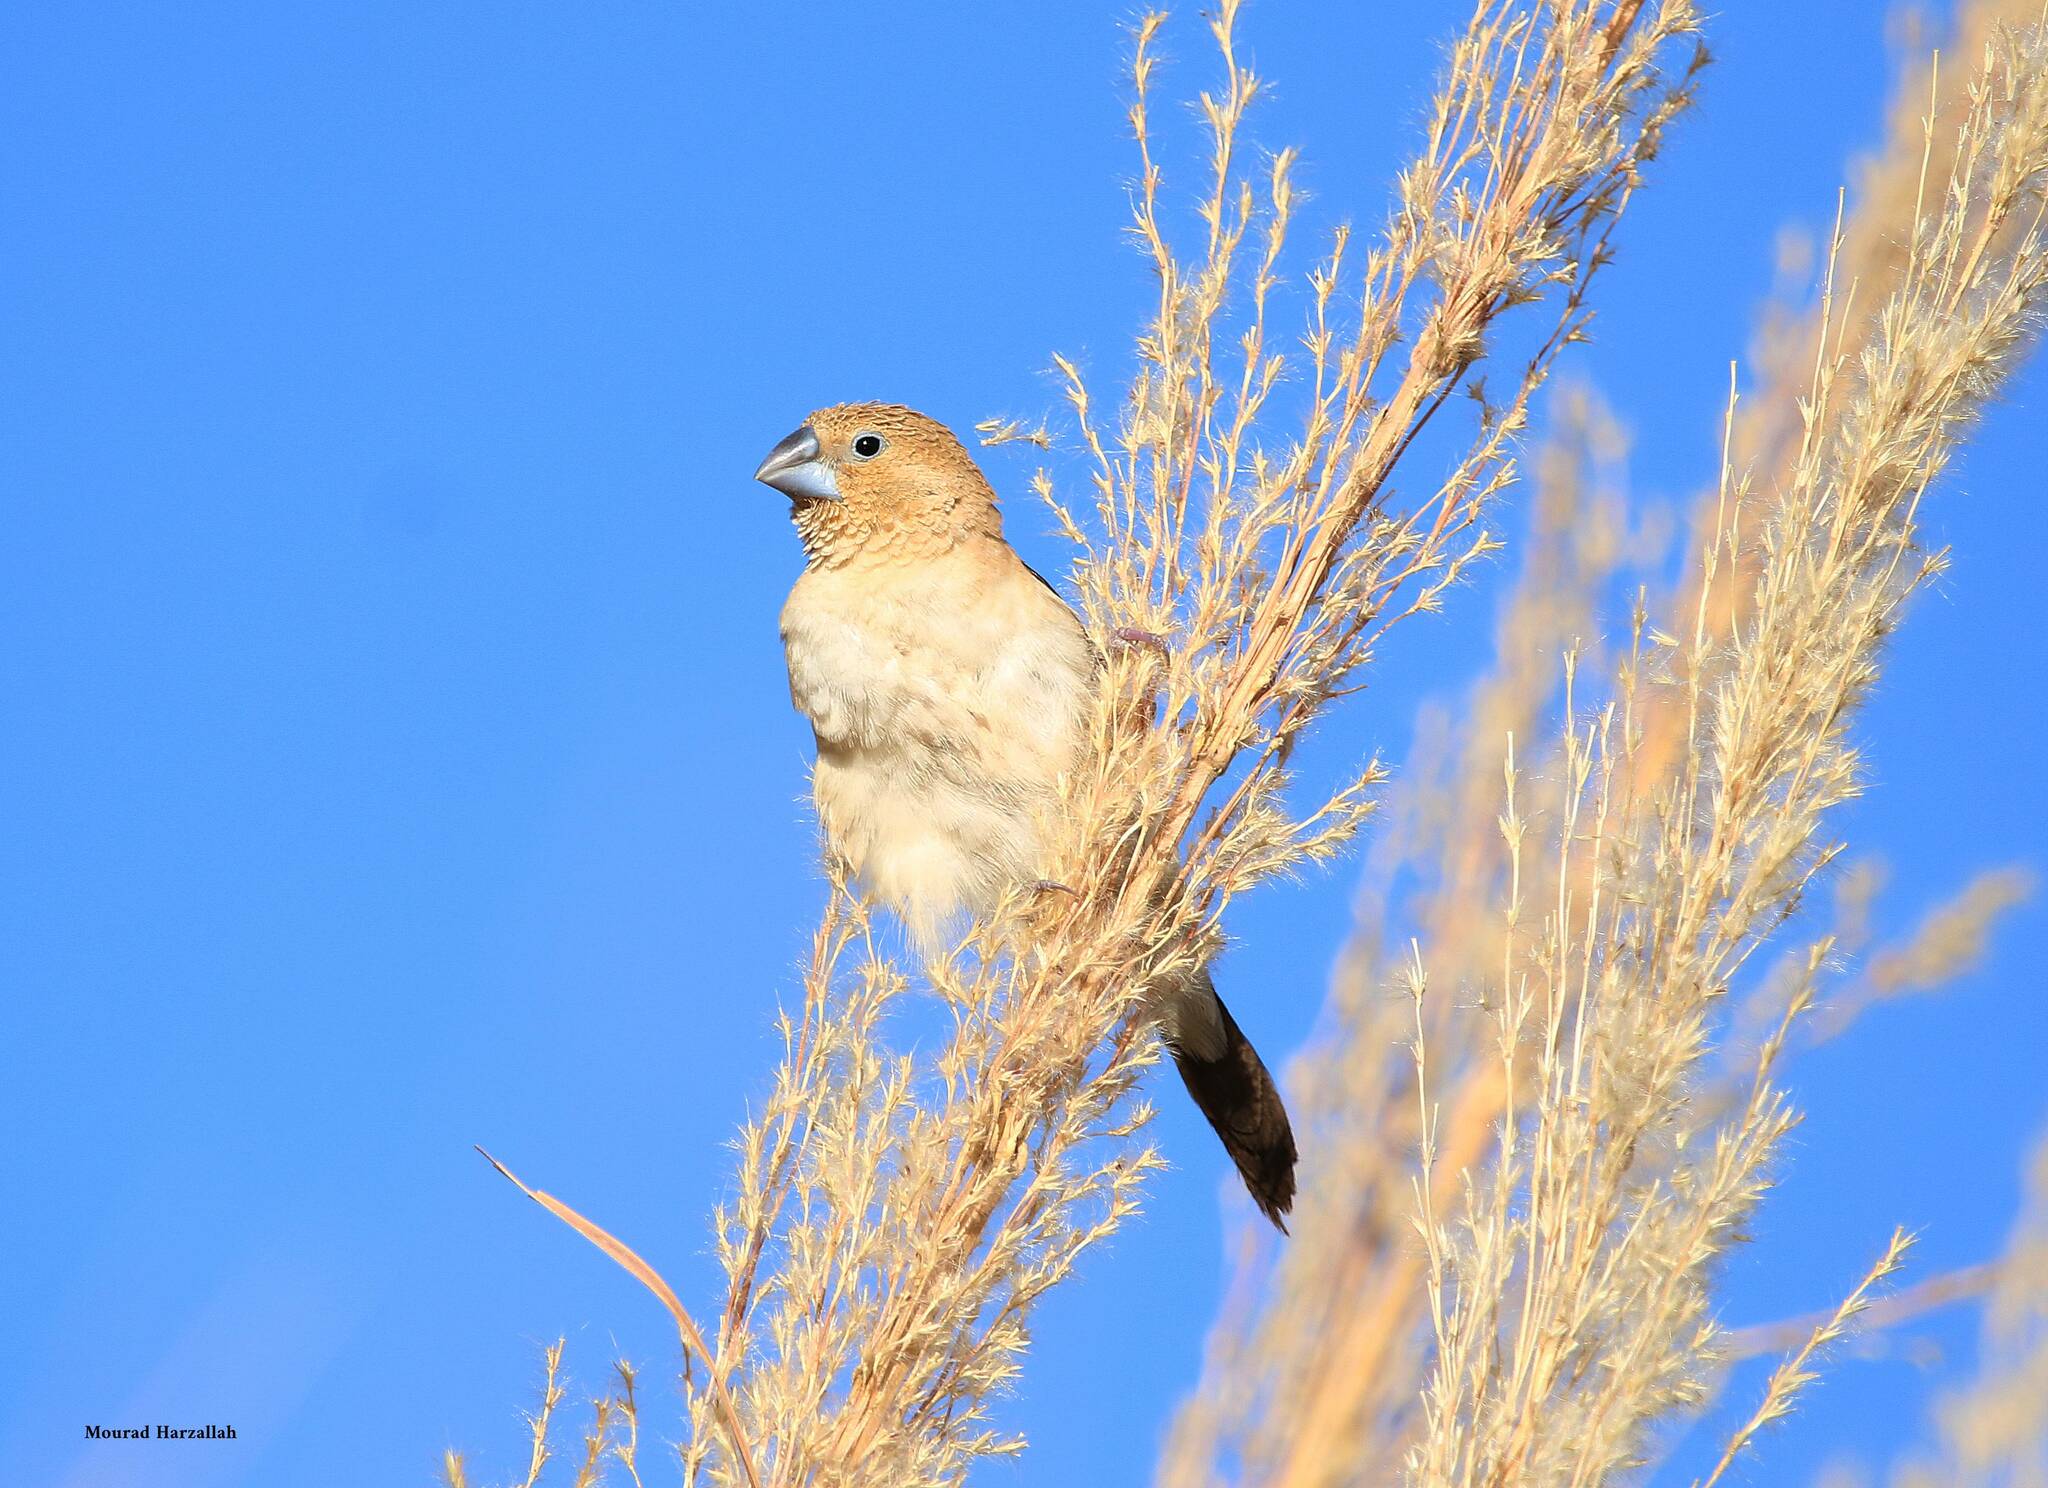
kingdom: Animalia
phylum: Chordata
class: Aves
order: Passeriformes
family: Estrildidae
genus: Euodice
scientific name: Euodice cantans
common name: African silverbill
